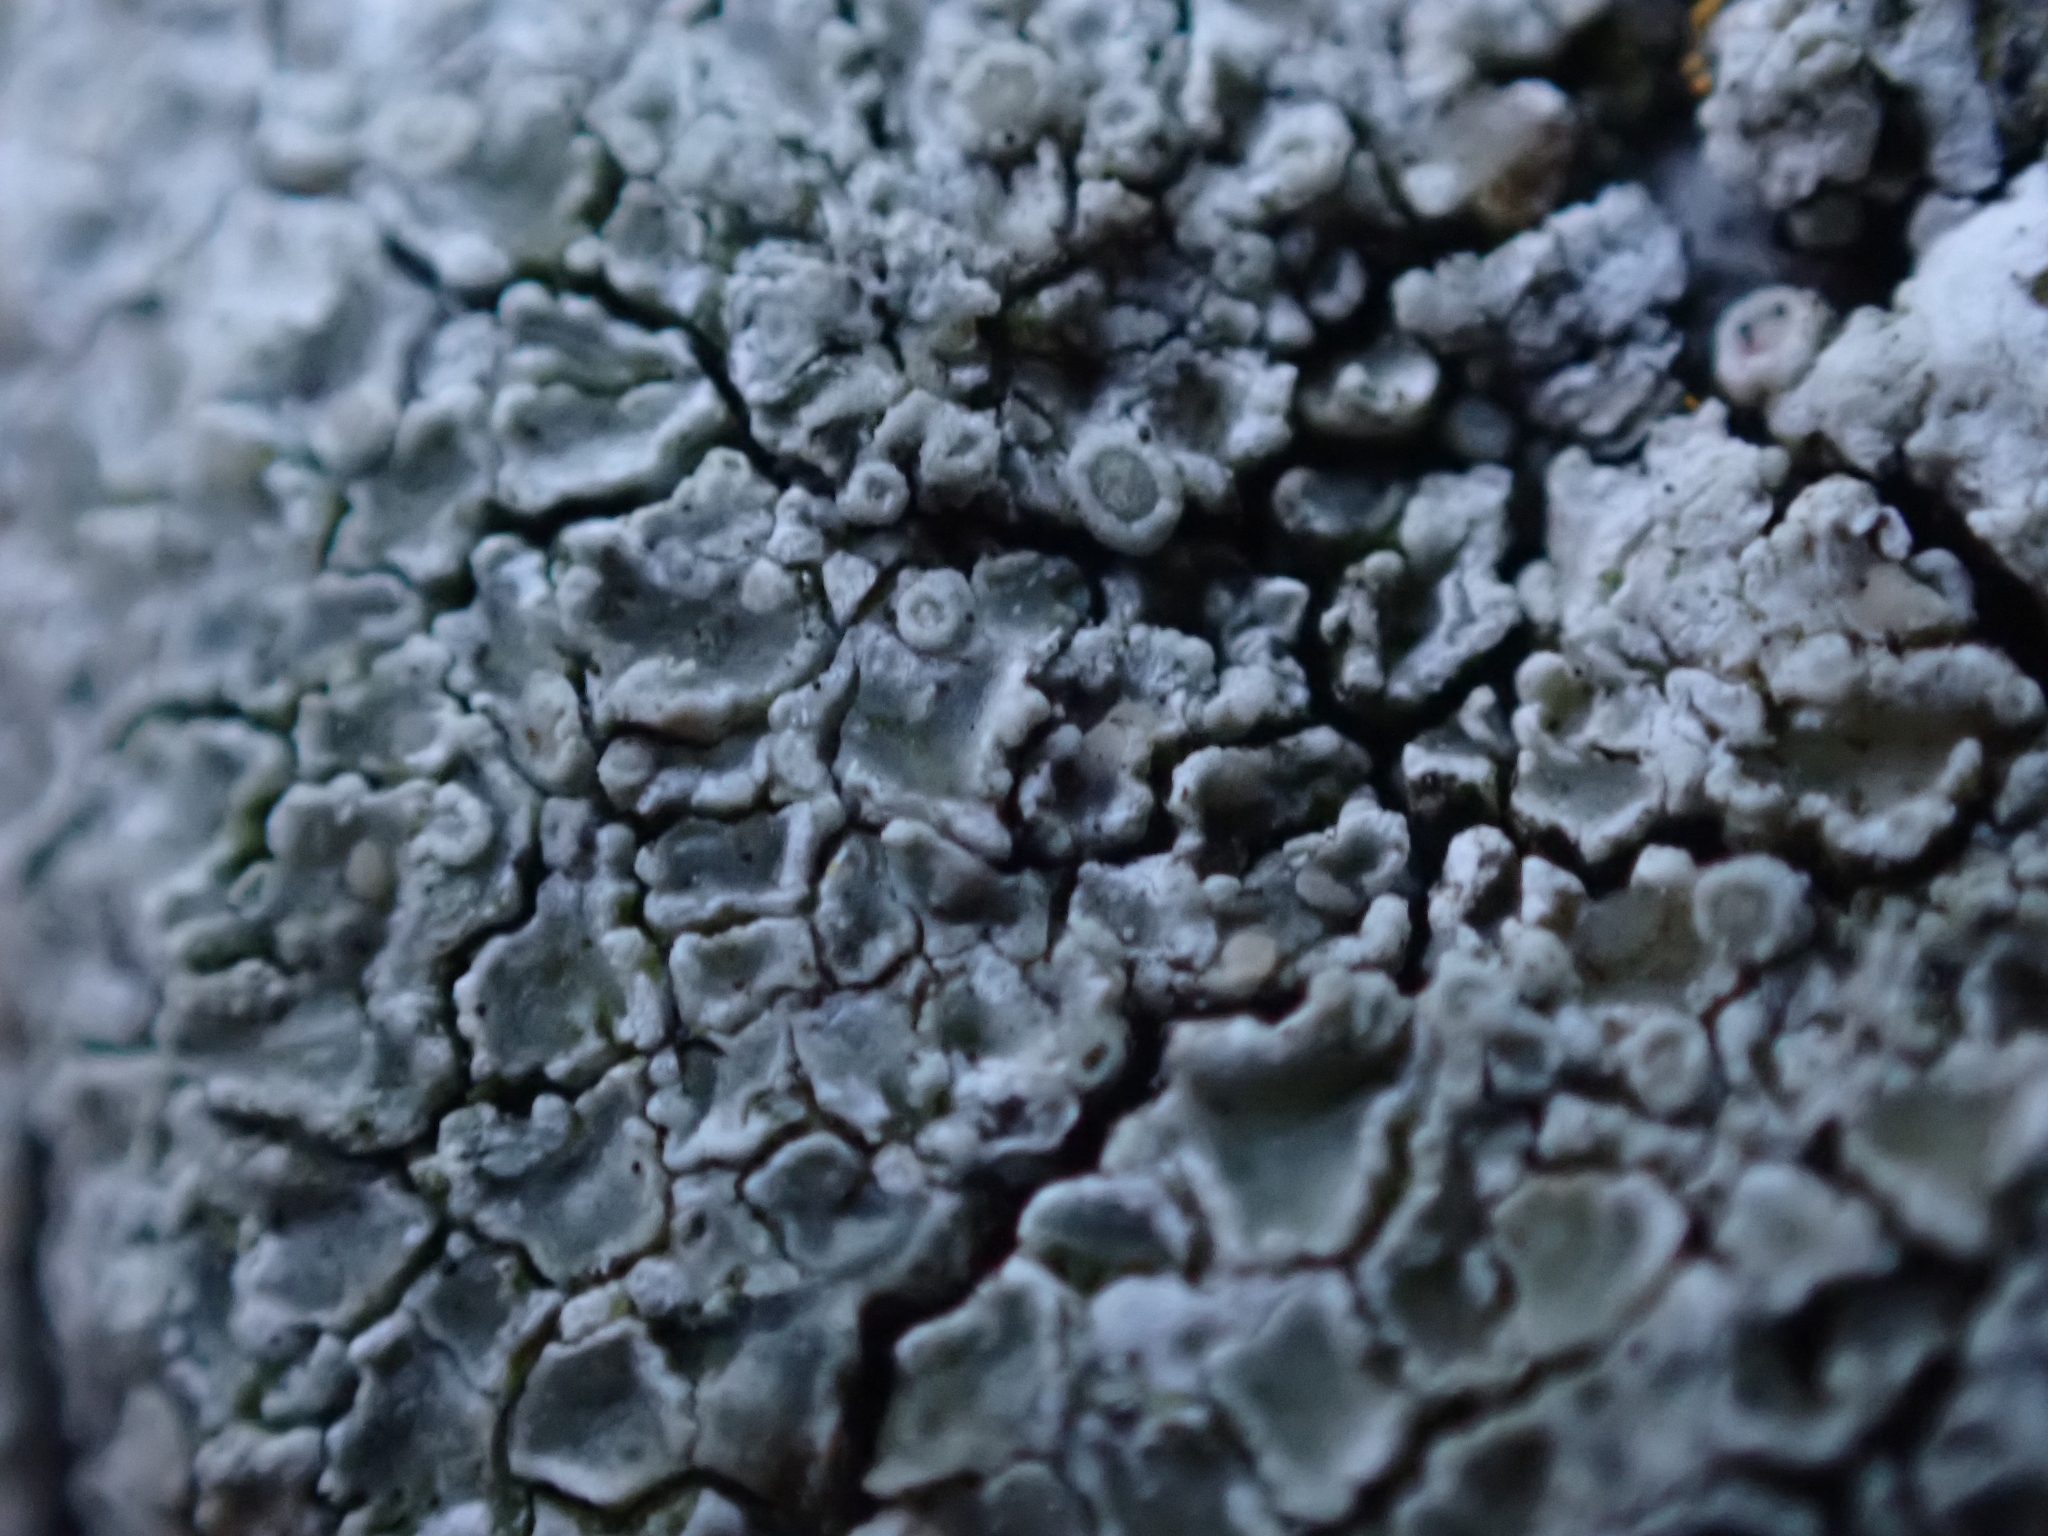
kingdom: Fungi
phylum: Ascomycota
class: Lecanoromycetes
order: Lecanorales
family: Lecanoraceae
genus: Polyozosia
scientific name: Polyozosia albescens
